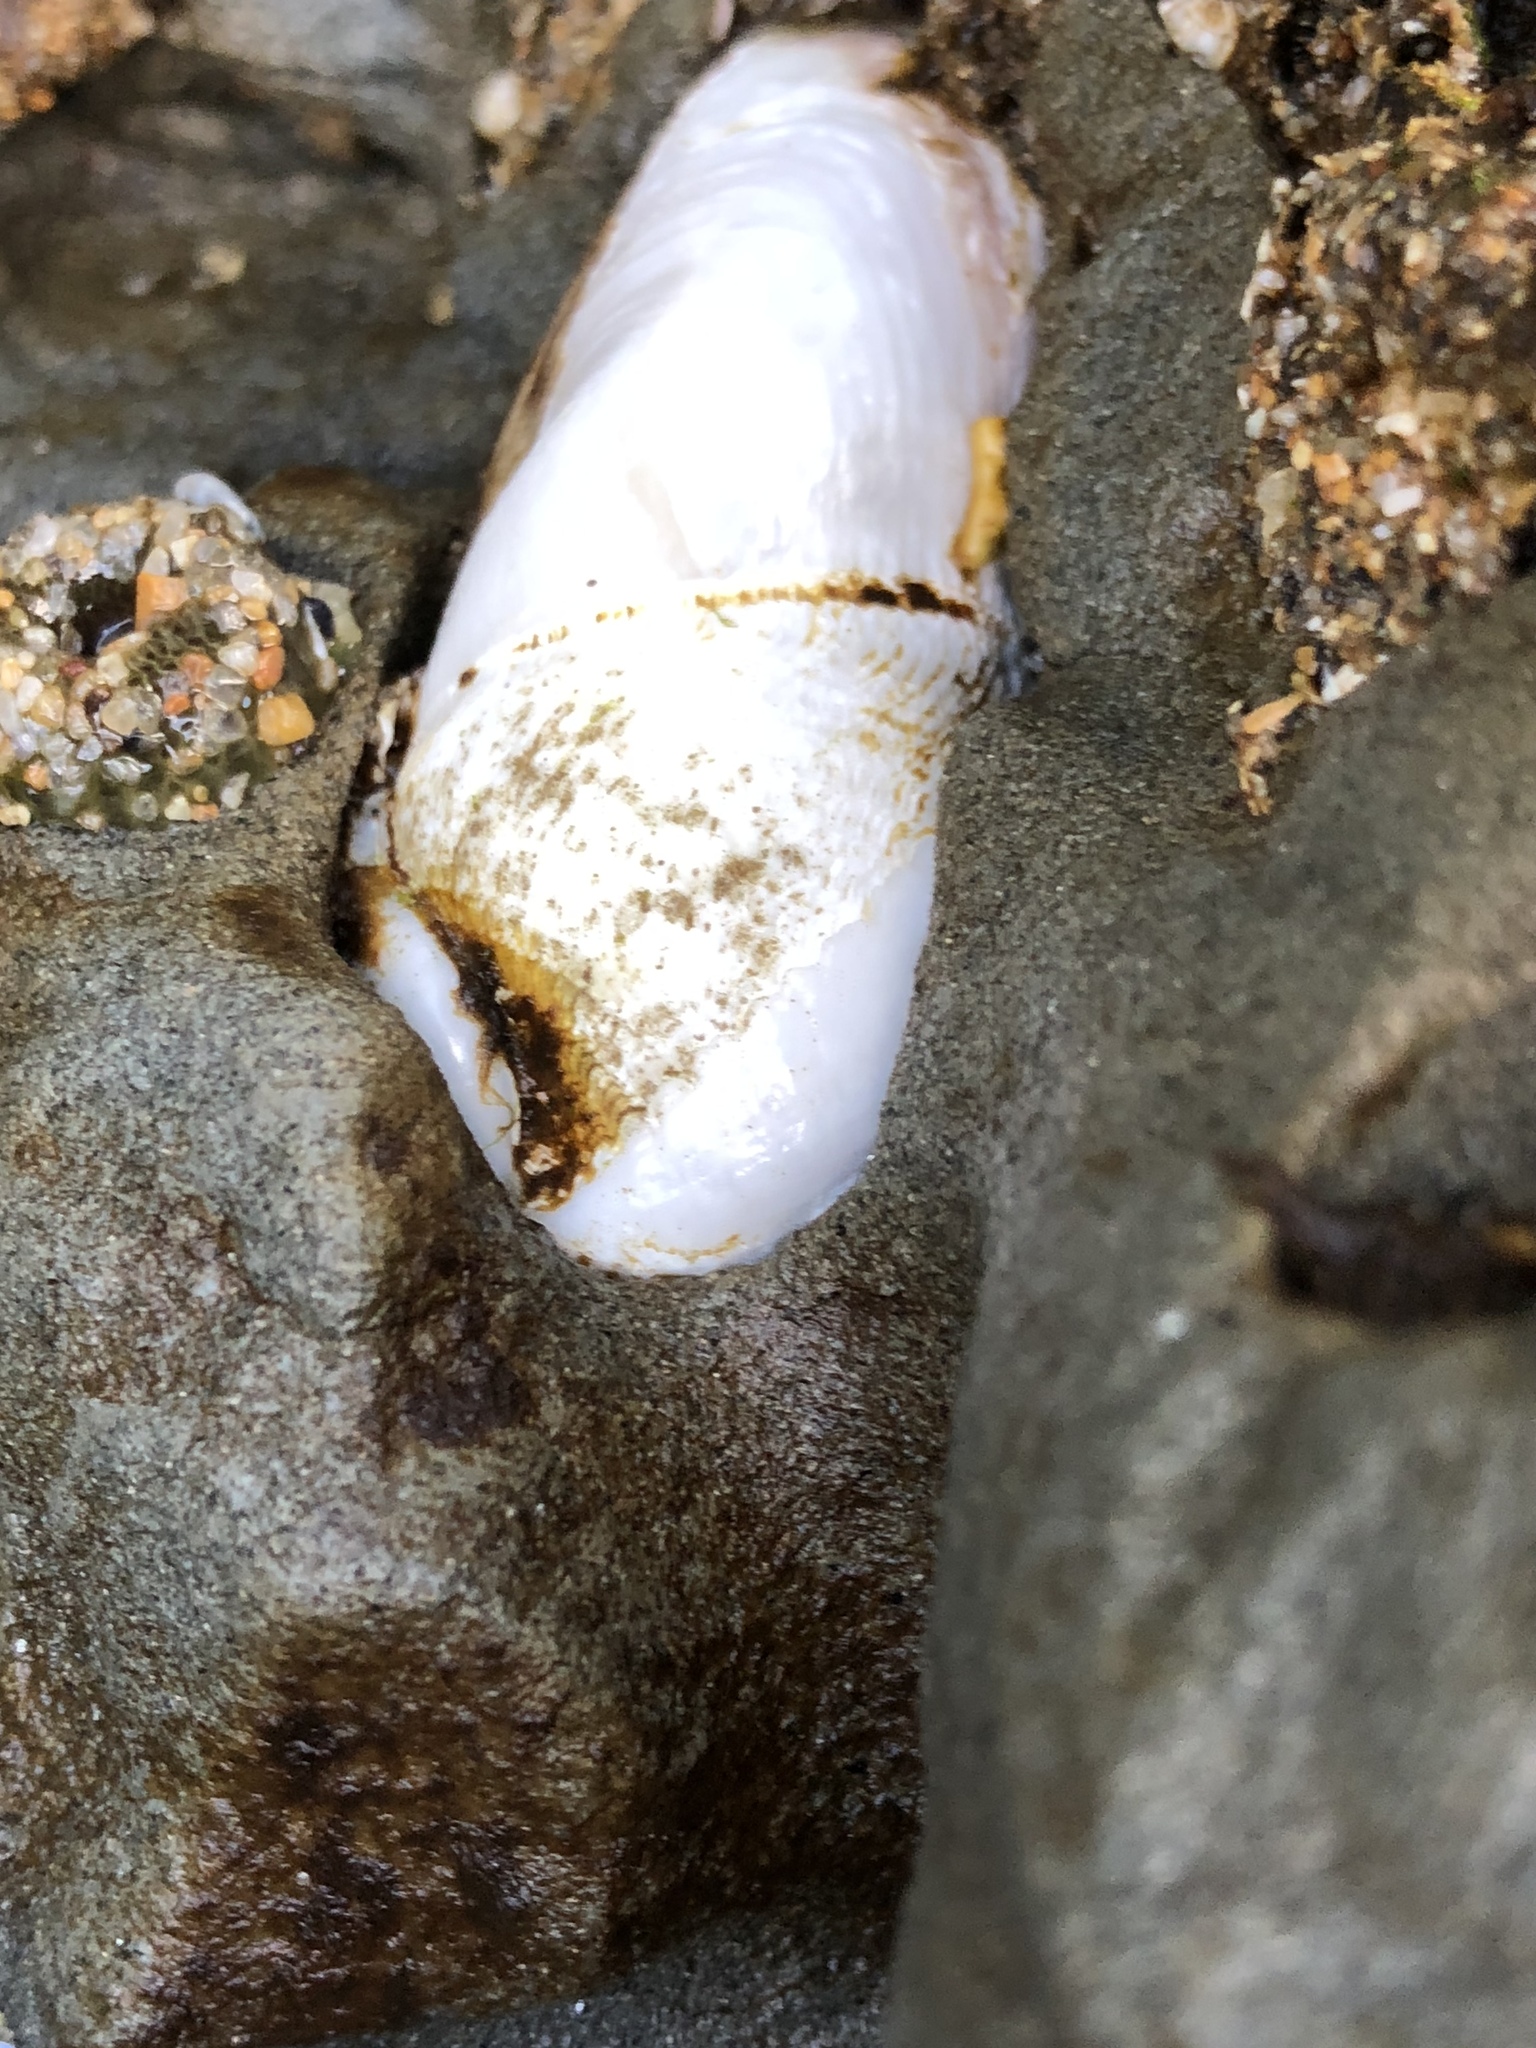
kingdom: Animalia
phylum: Mollusca
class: Bivalvia
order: Myida
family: Pholadidae
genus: Parapholas
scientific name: Parapholas californica
